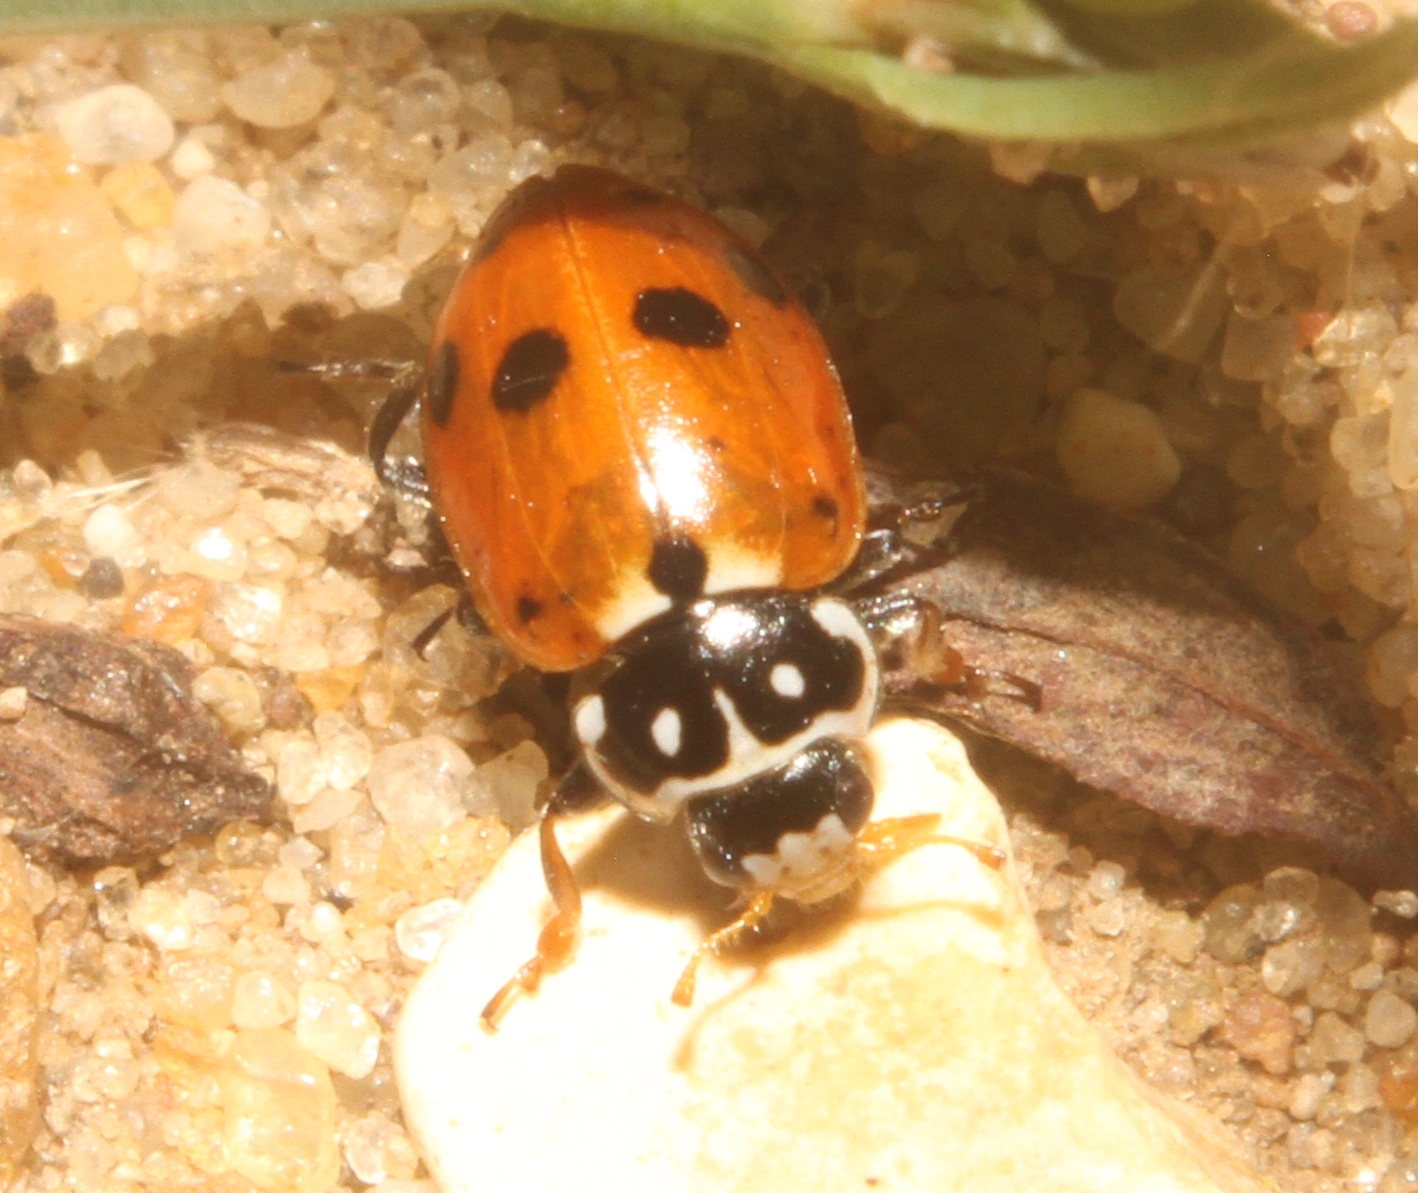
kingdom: Animalia
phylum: Arthropoda
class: Insecta
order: Coleoptera
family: Coccinellidae
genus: Hippodamia
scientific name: Hippodamia variegata
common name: Ladybird beetle
